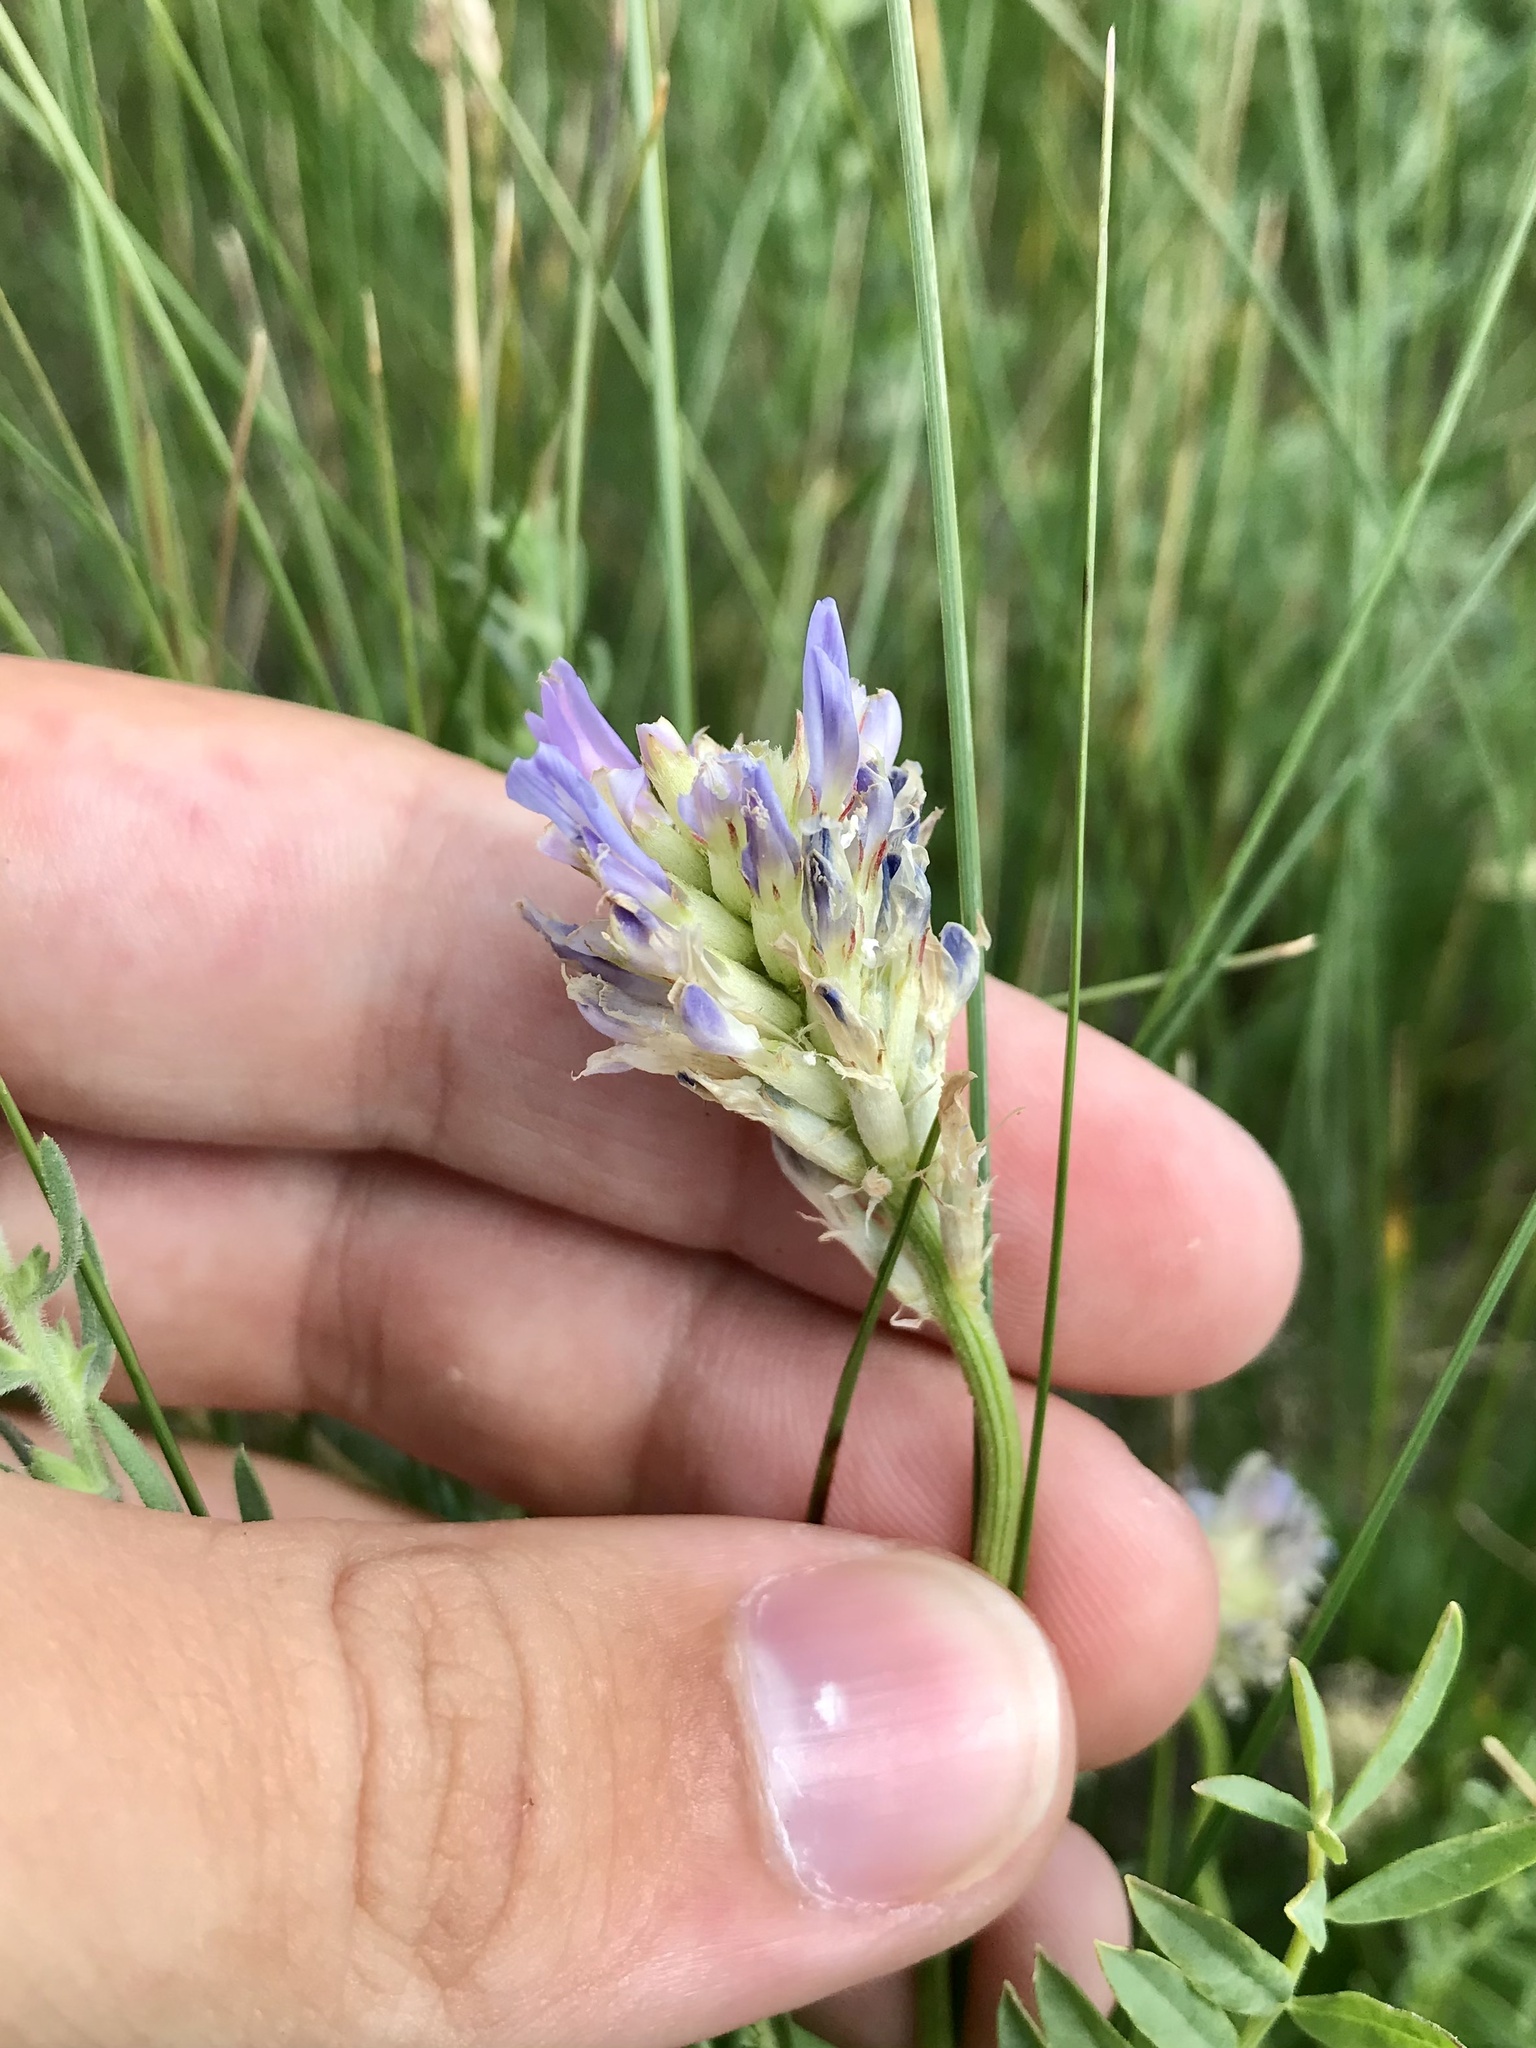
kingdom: Plantae
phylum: Tracheophyta
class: Magnoliopsida
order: Fabales
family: Fabaceae
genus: Astragalus
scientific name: Astragalus laxmannii
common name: Laxmann's milk-vetch
